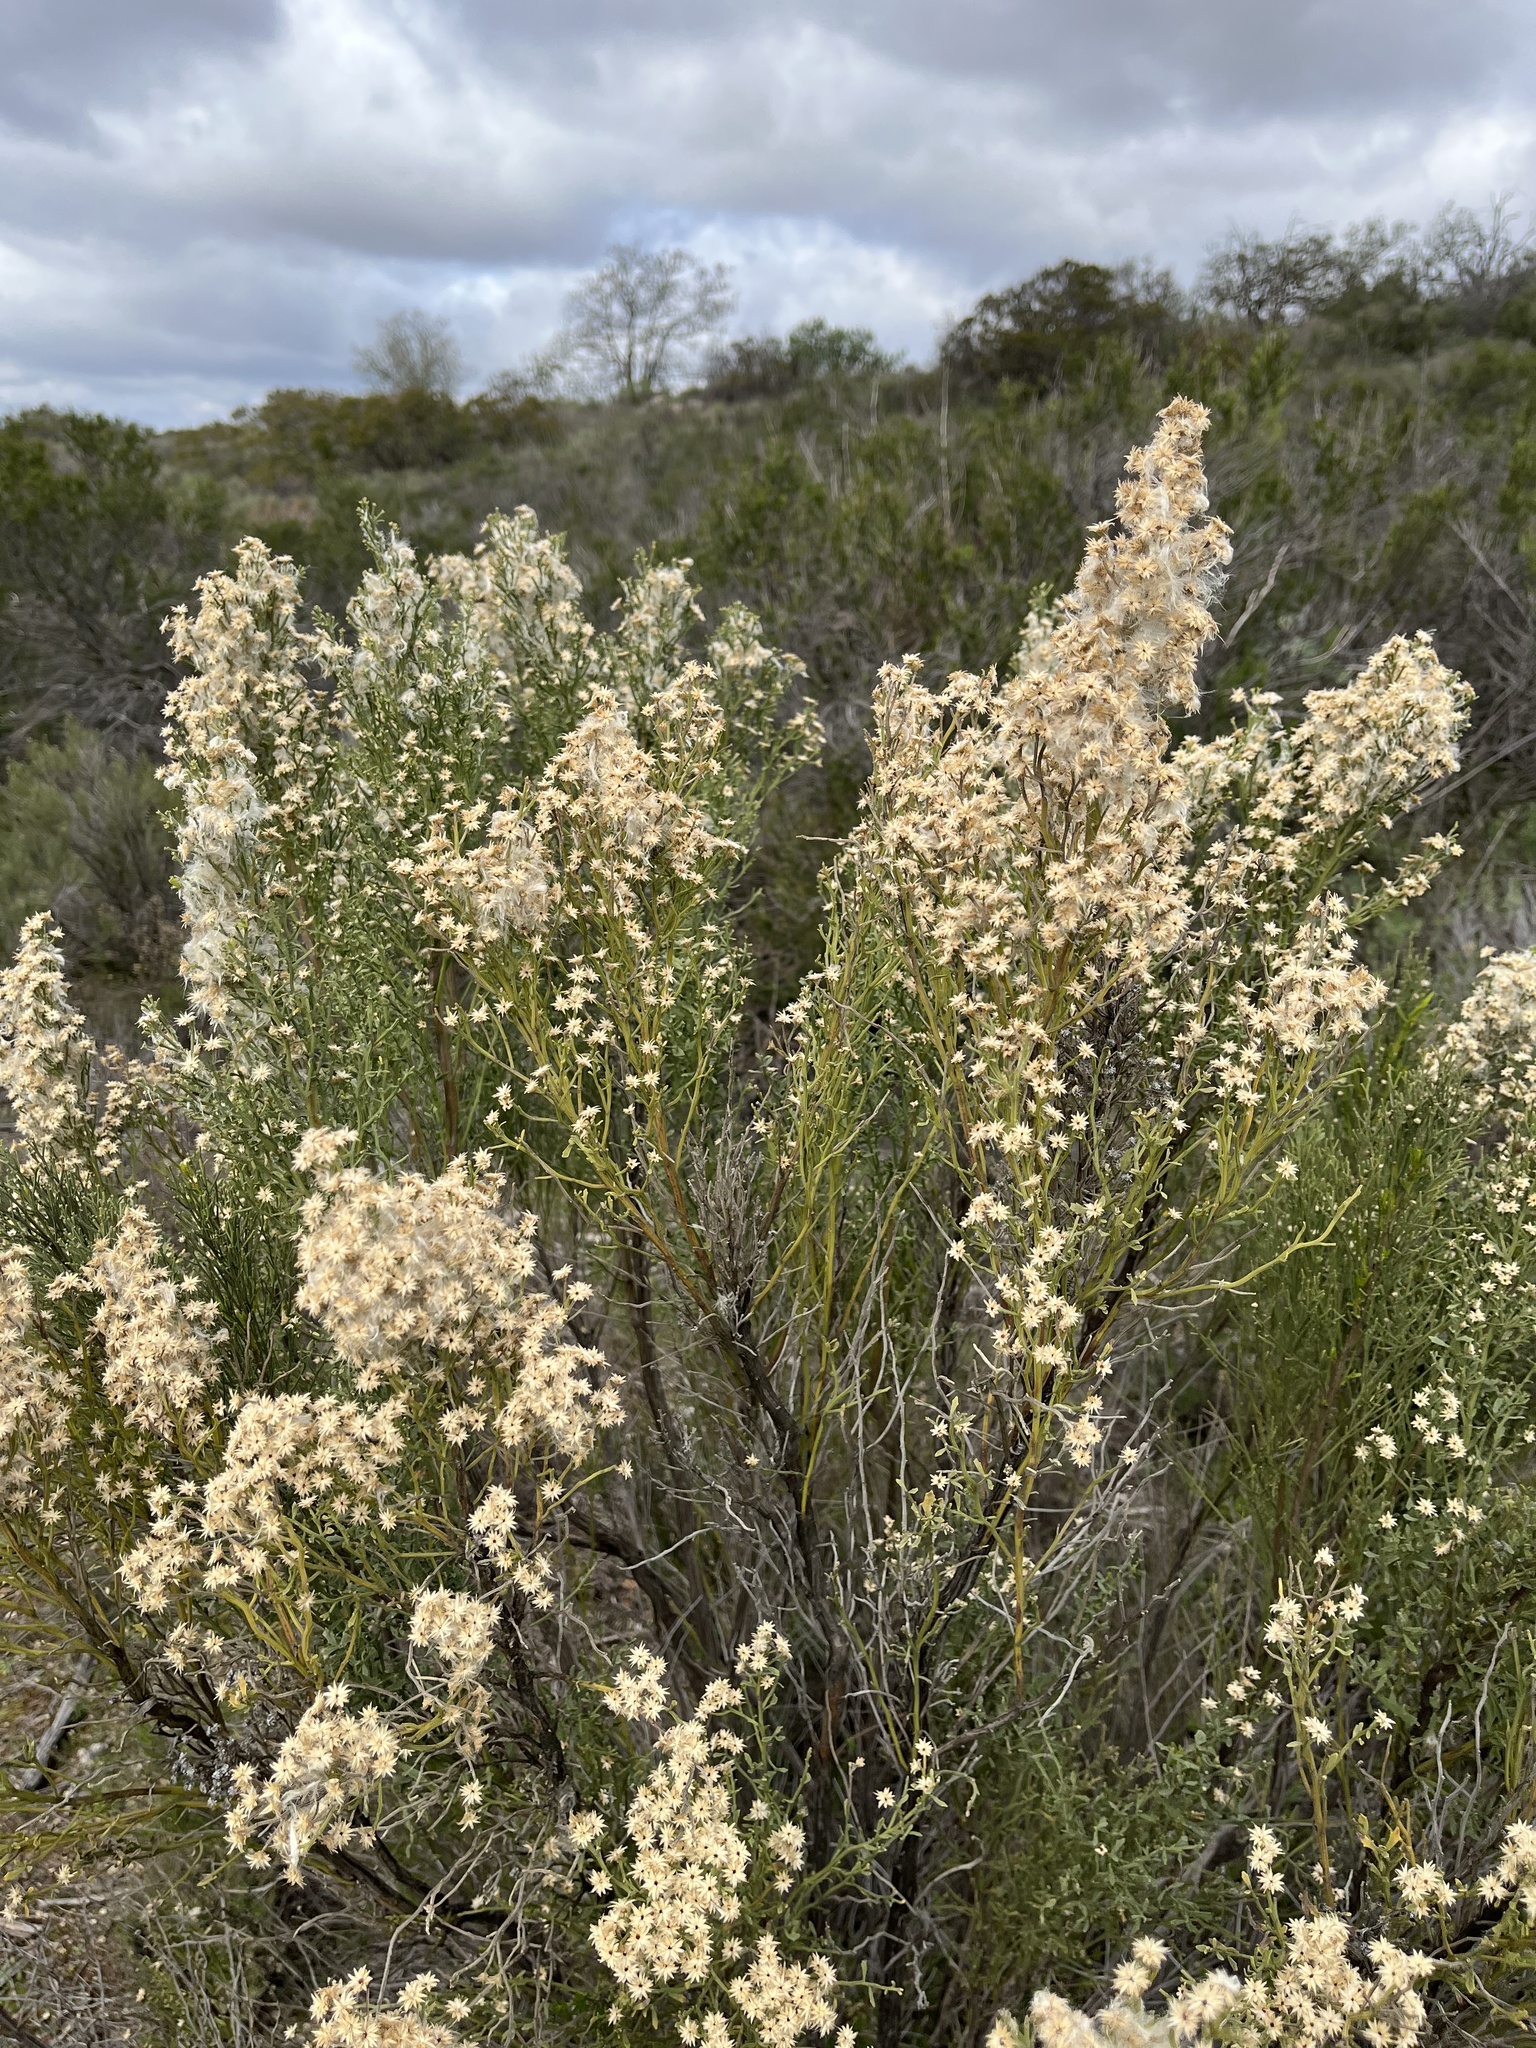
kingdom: Plantae
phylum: Tracheophyta
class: Magnoliopsida
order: Asterales
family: Asteraceae
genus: Baccharis
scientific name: Baccharis pilularis
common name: Coyotebrush
